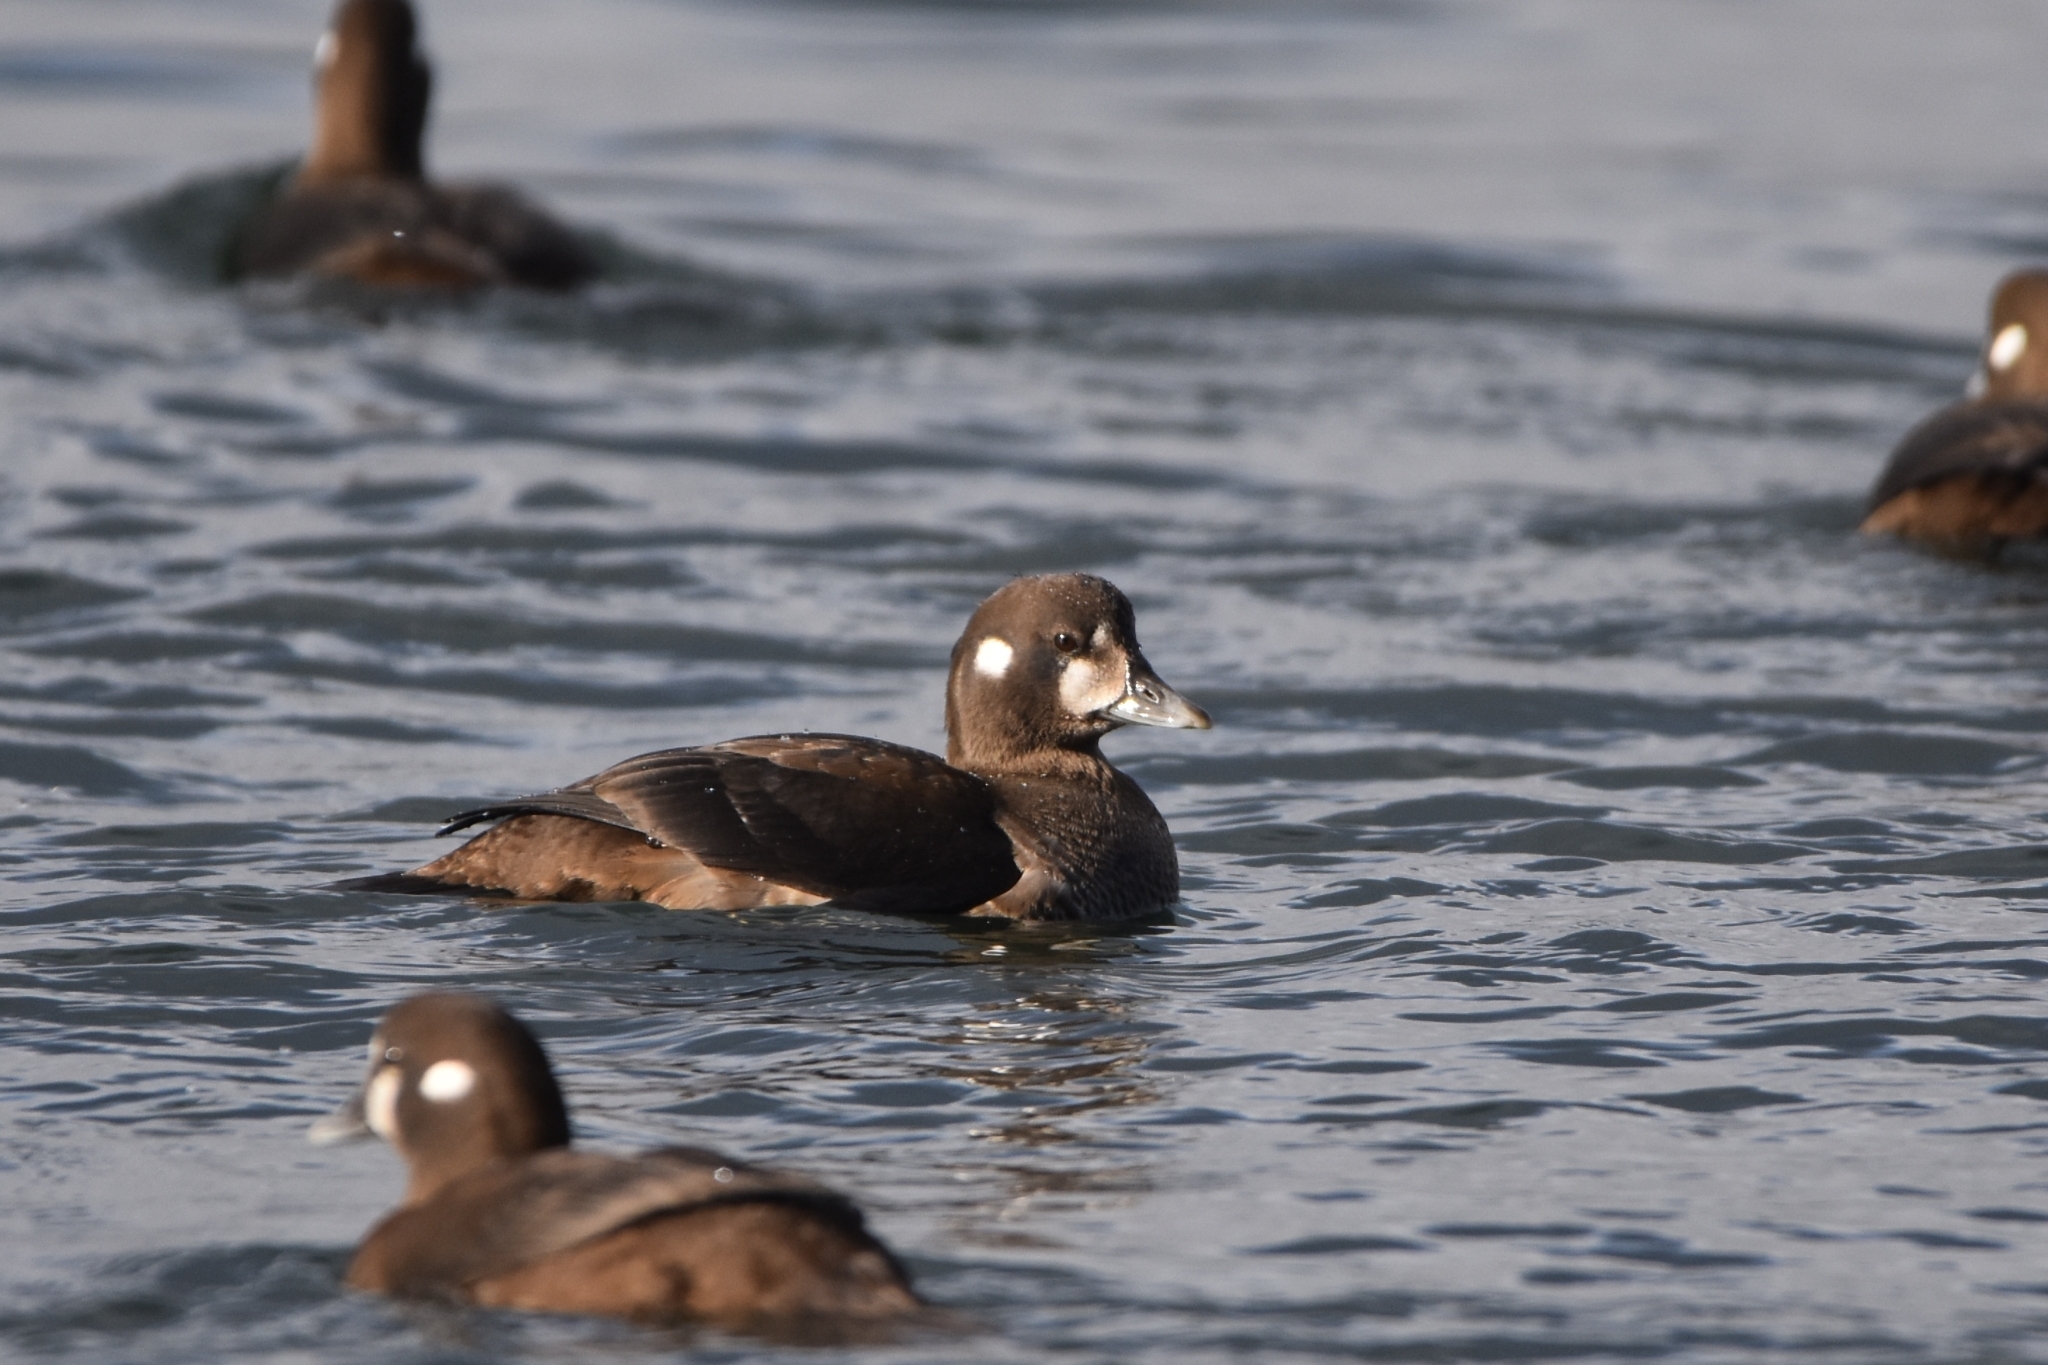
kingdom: Animalia
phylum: Chordata
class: Aves
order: Anseriformes
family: Anatidae
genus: Histrionicus
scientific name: Histrionicus histrionicus
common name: Harlequin duck
